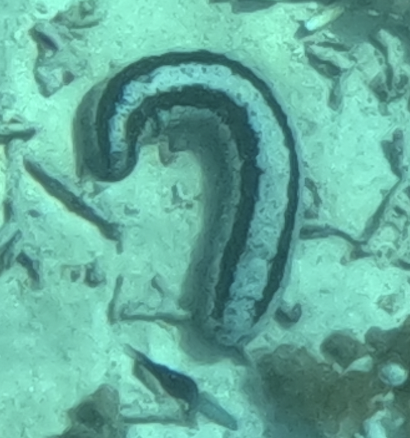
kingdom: Animalia
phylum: Echinodermata
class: Holothuroidea
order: Holothuriida
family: Holothuriidae
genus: Holothuria
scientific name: Holothuria atra
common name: Lollyfish
